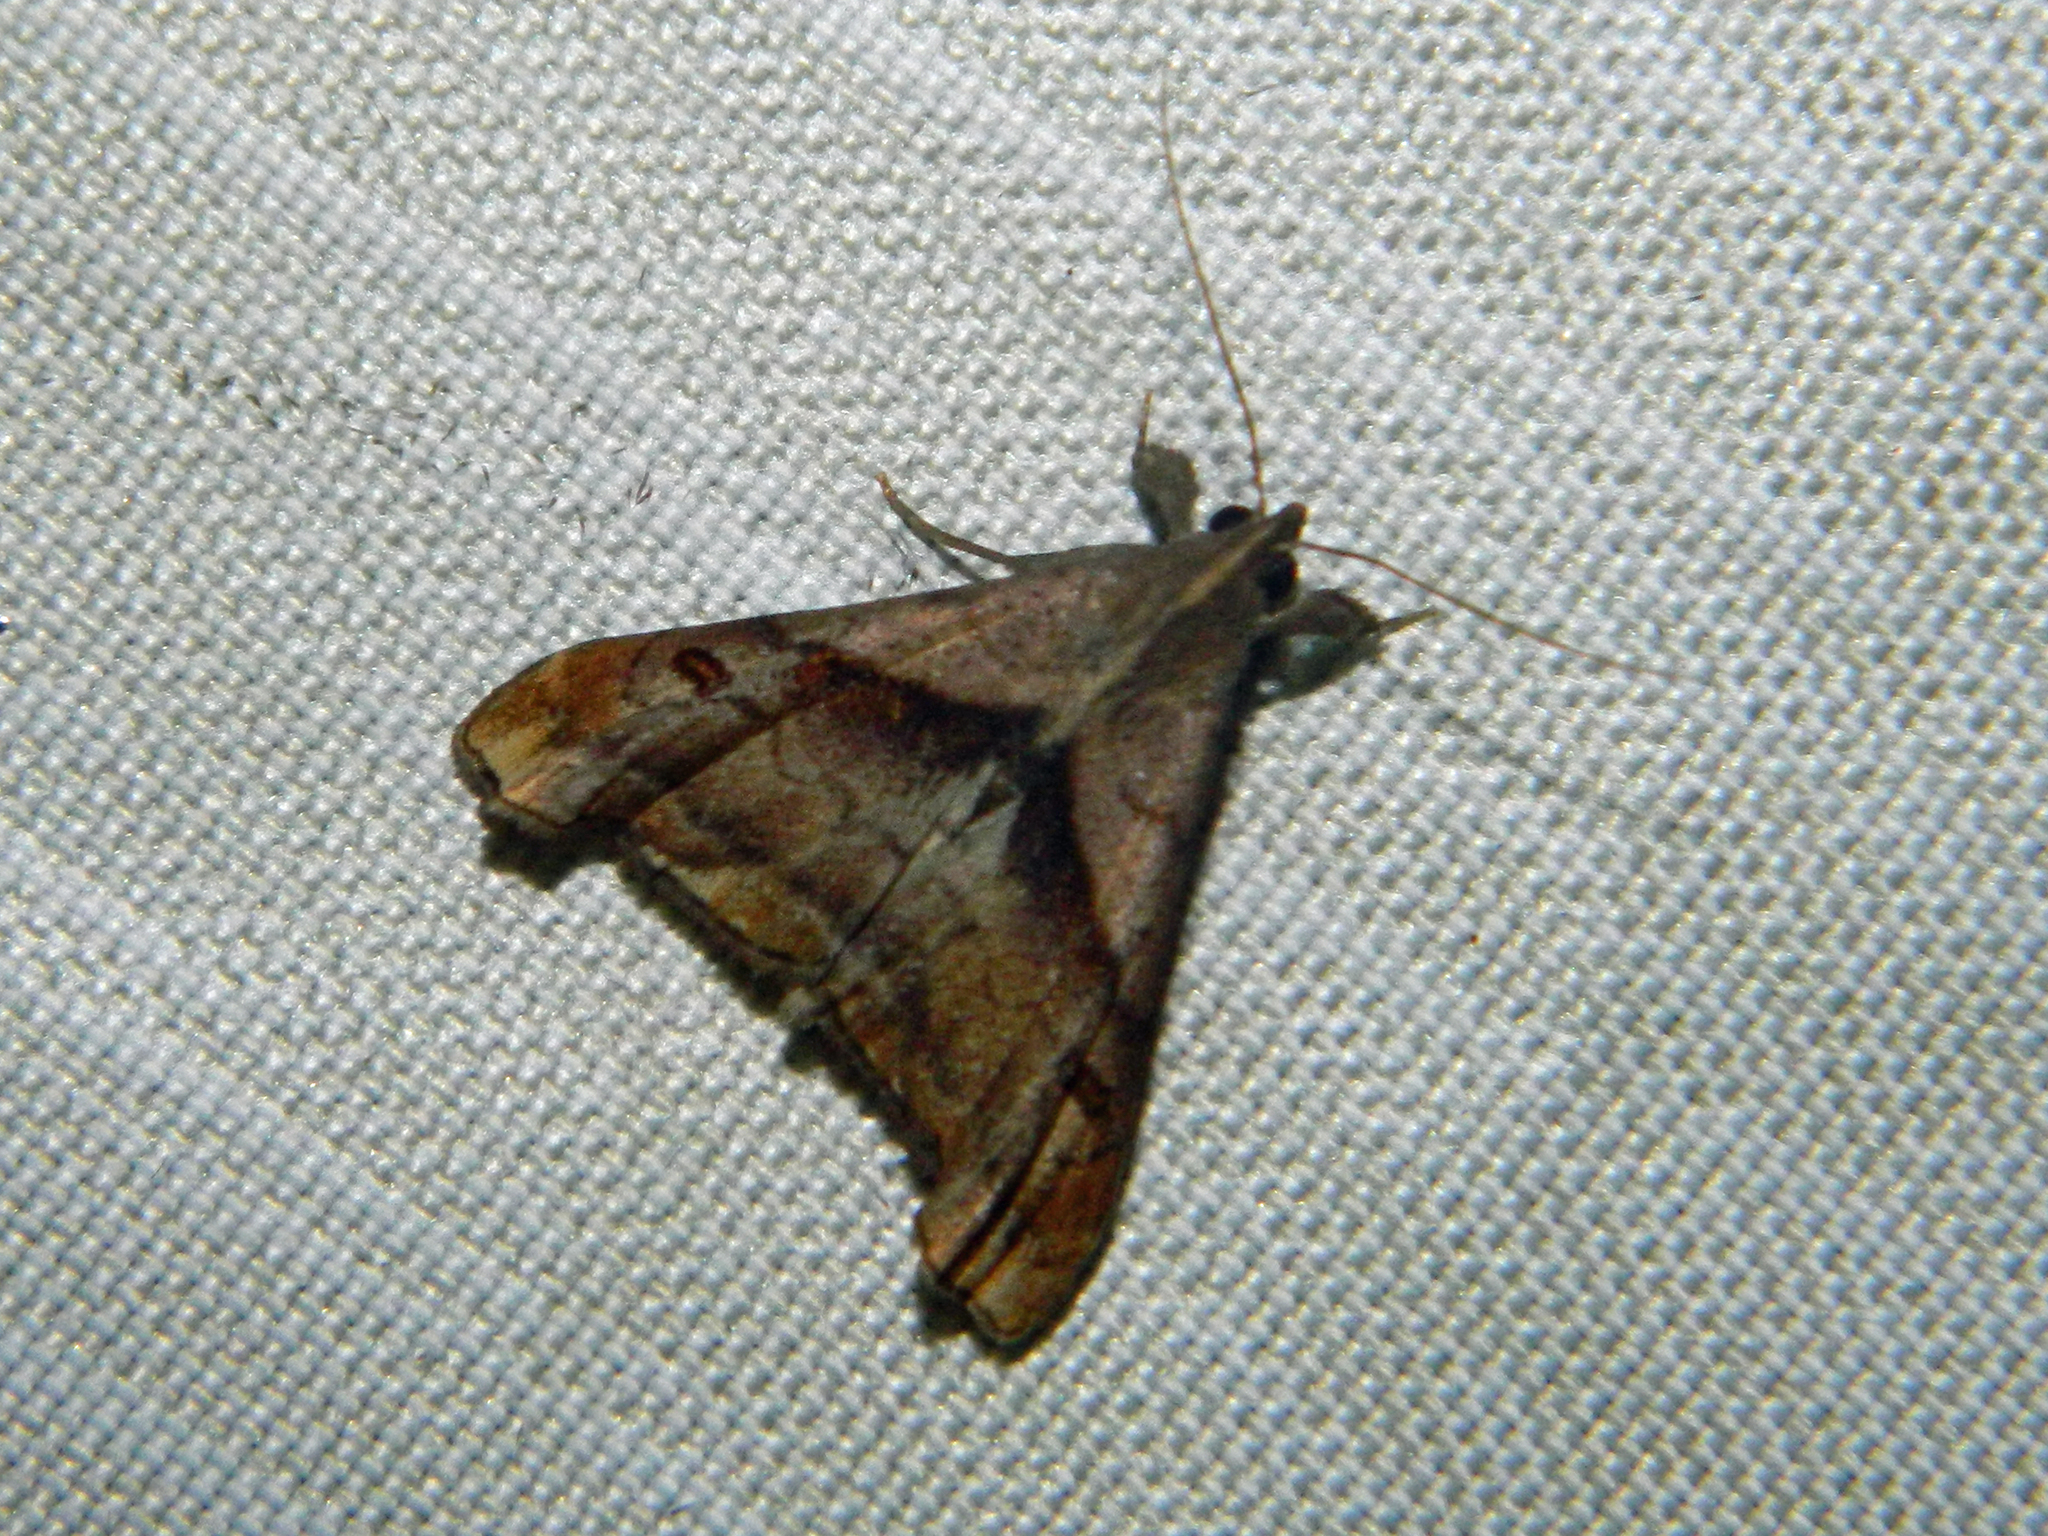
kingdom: Animalia
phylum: Arthropoda
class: Insecta
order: Lepidoptera
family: Erebidae
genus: Palthis
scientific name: Palthis angulalis
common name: Dark-spotted palthis moth
